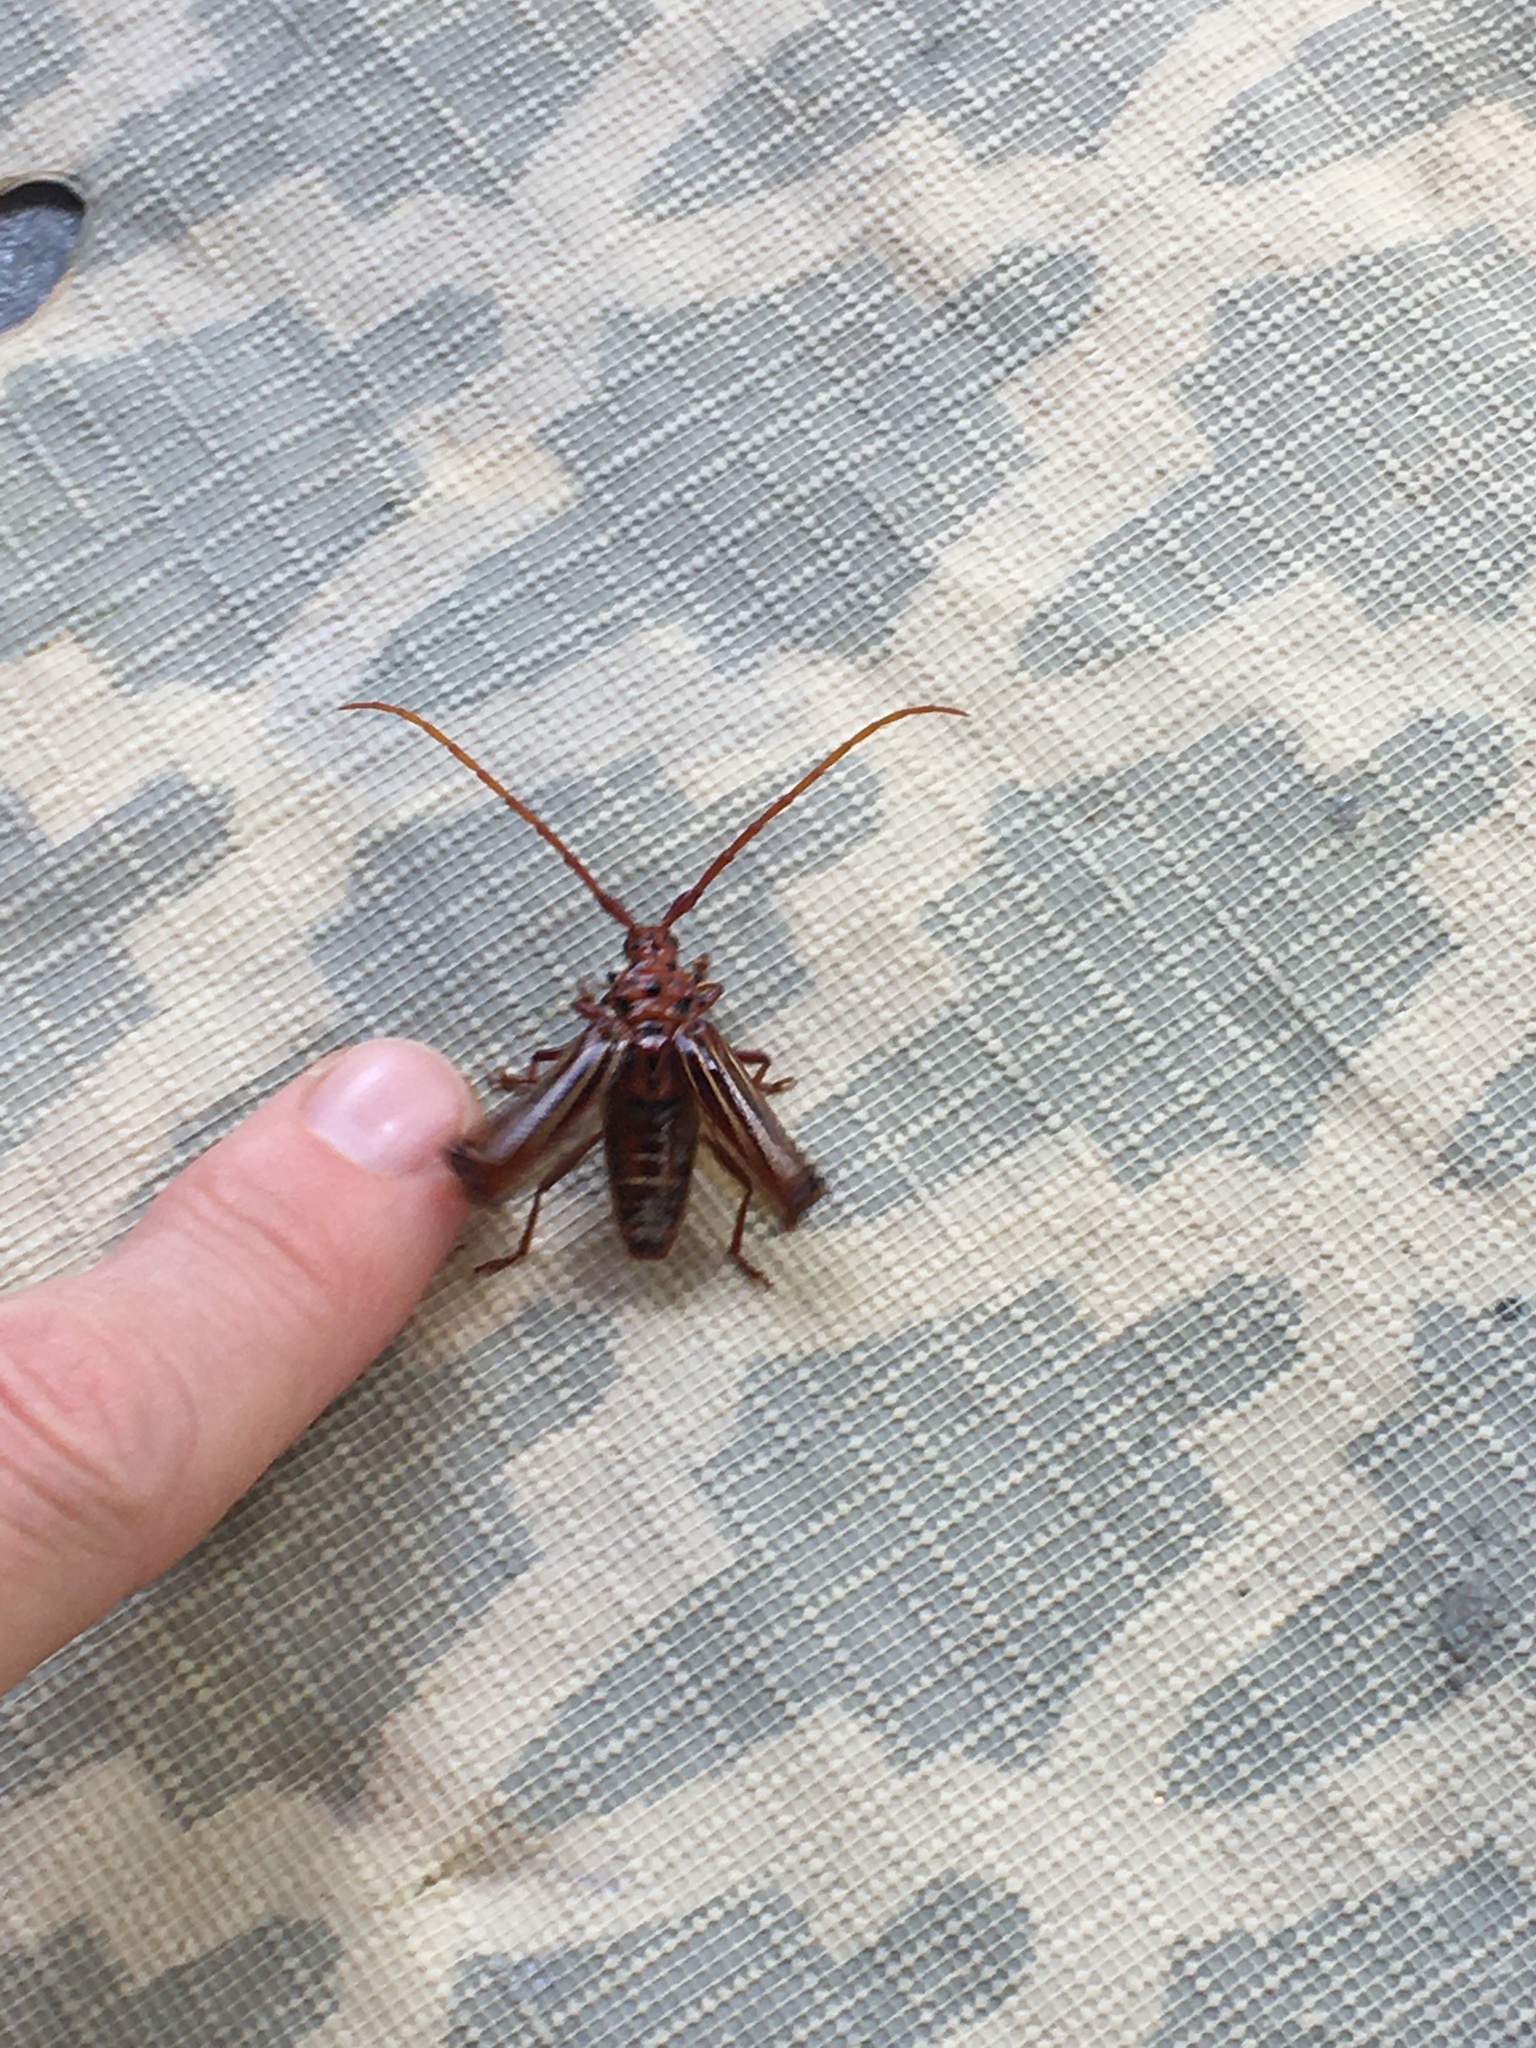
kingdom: Animalia
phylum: Arthropoda
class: Insecta
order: Coleoptera
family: Cerambycidae
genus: Chydarteres
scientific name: Chydarteres striatus
